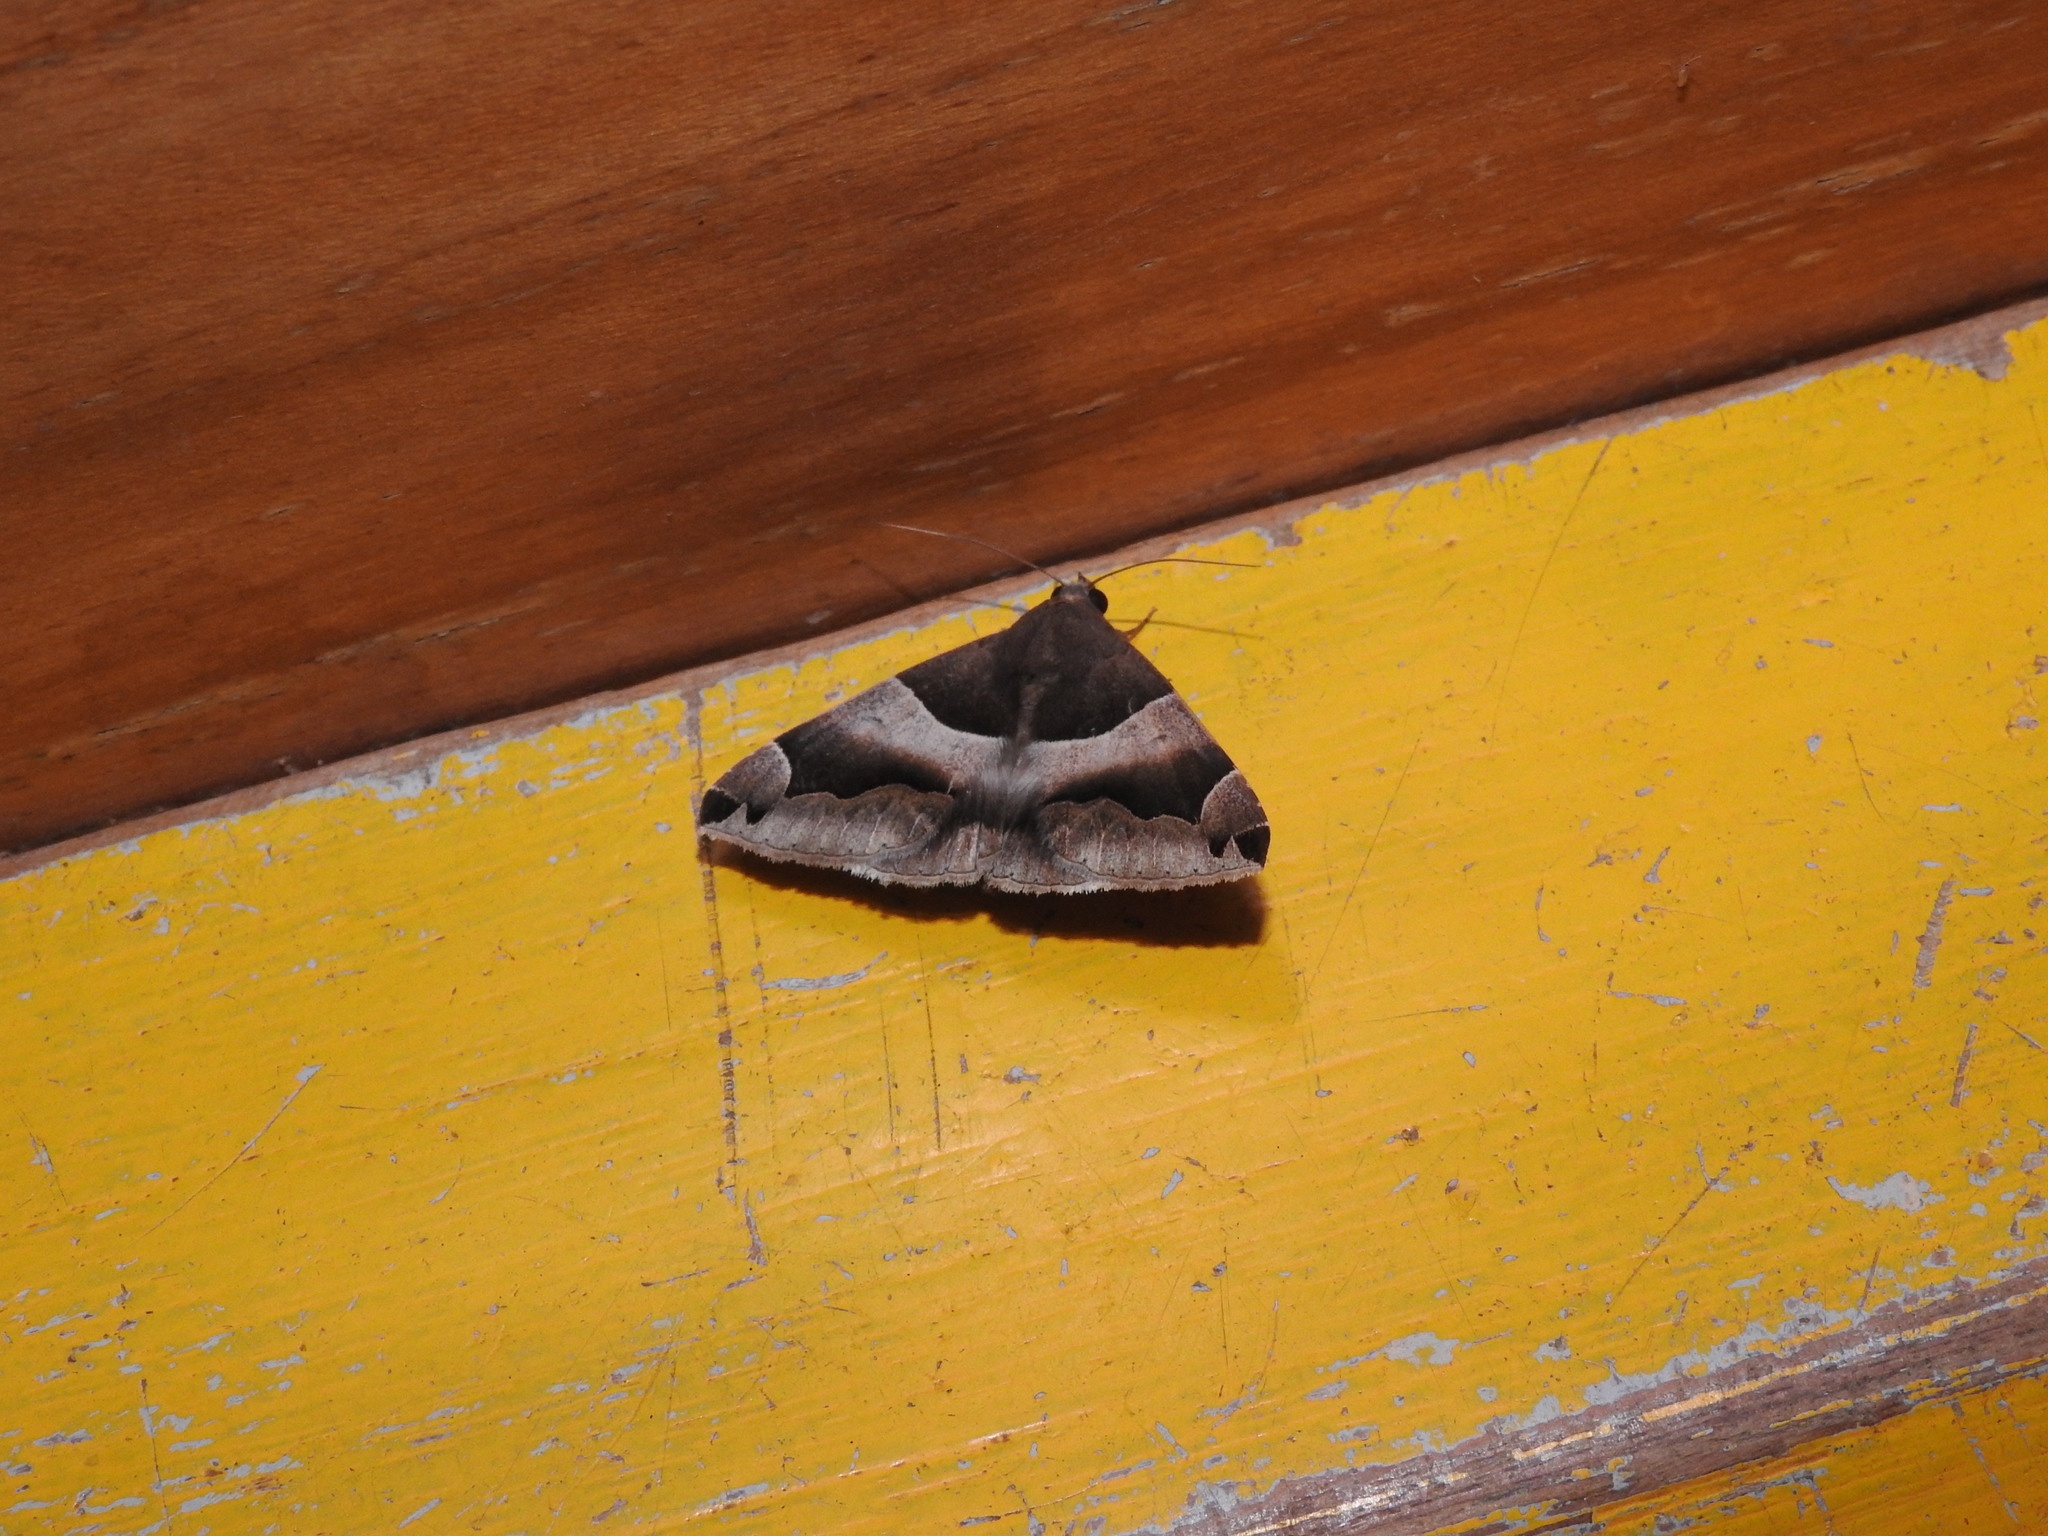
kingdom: Animalia
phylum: Arthropoda
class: Insecta
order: Lepidoptera
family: Erebidae
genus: Dysgonia
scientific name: Dysgonia stuposa
